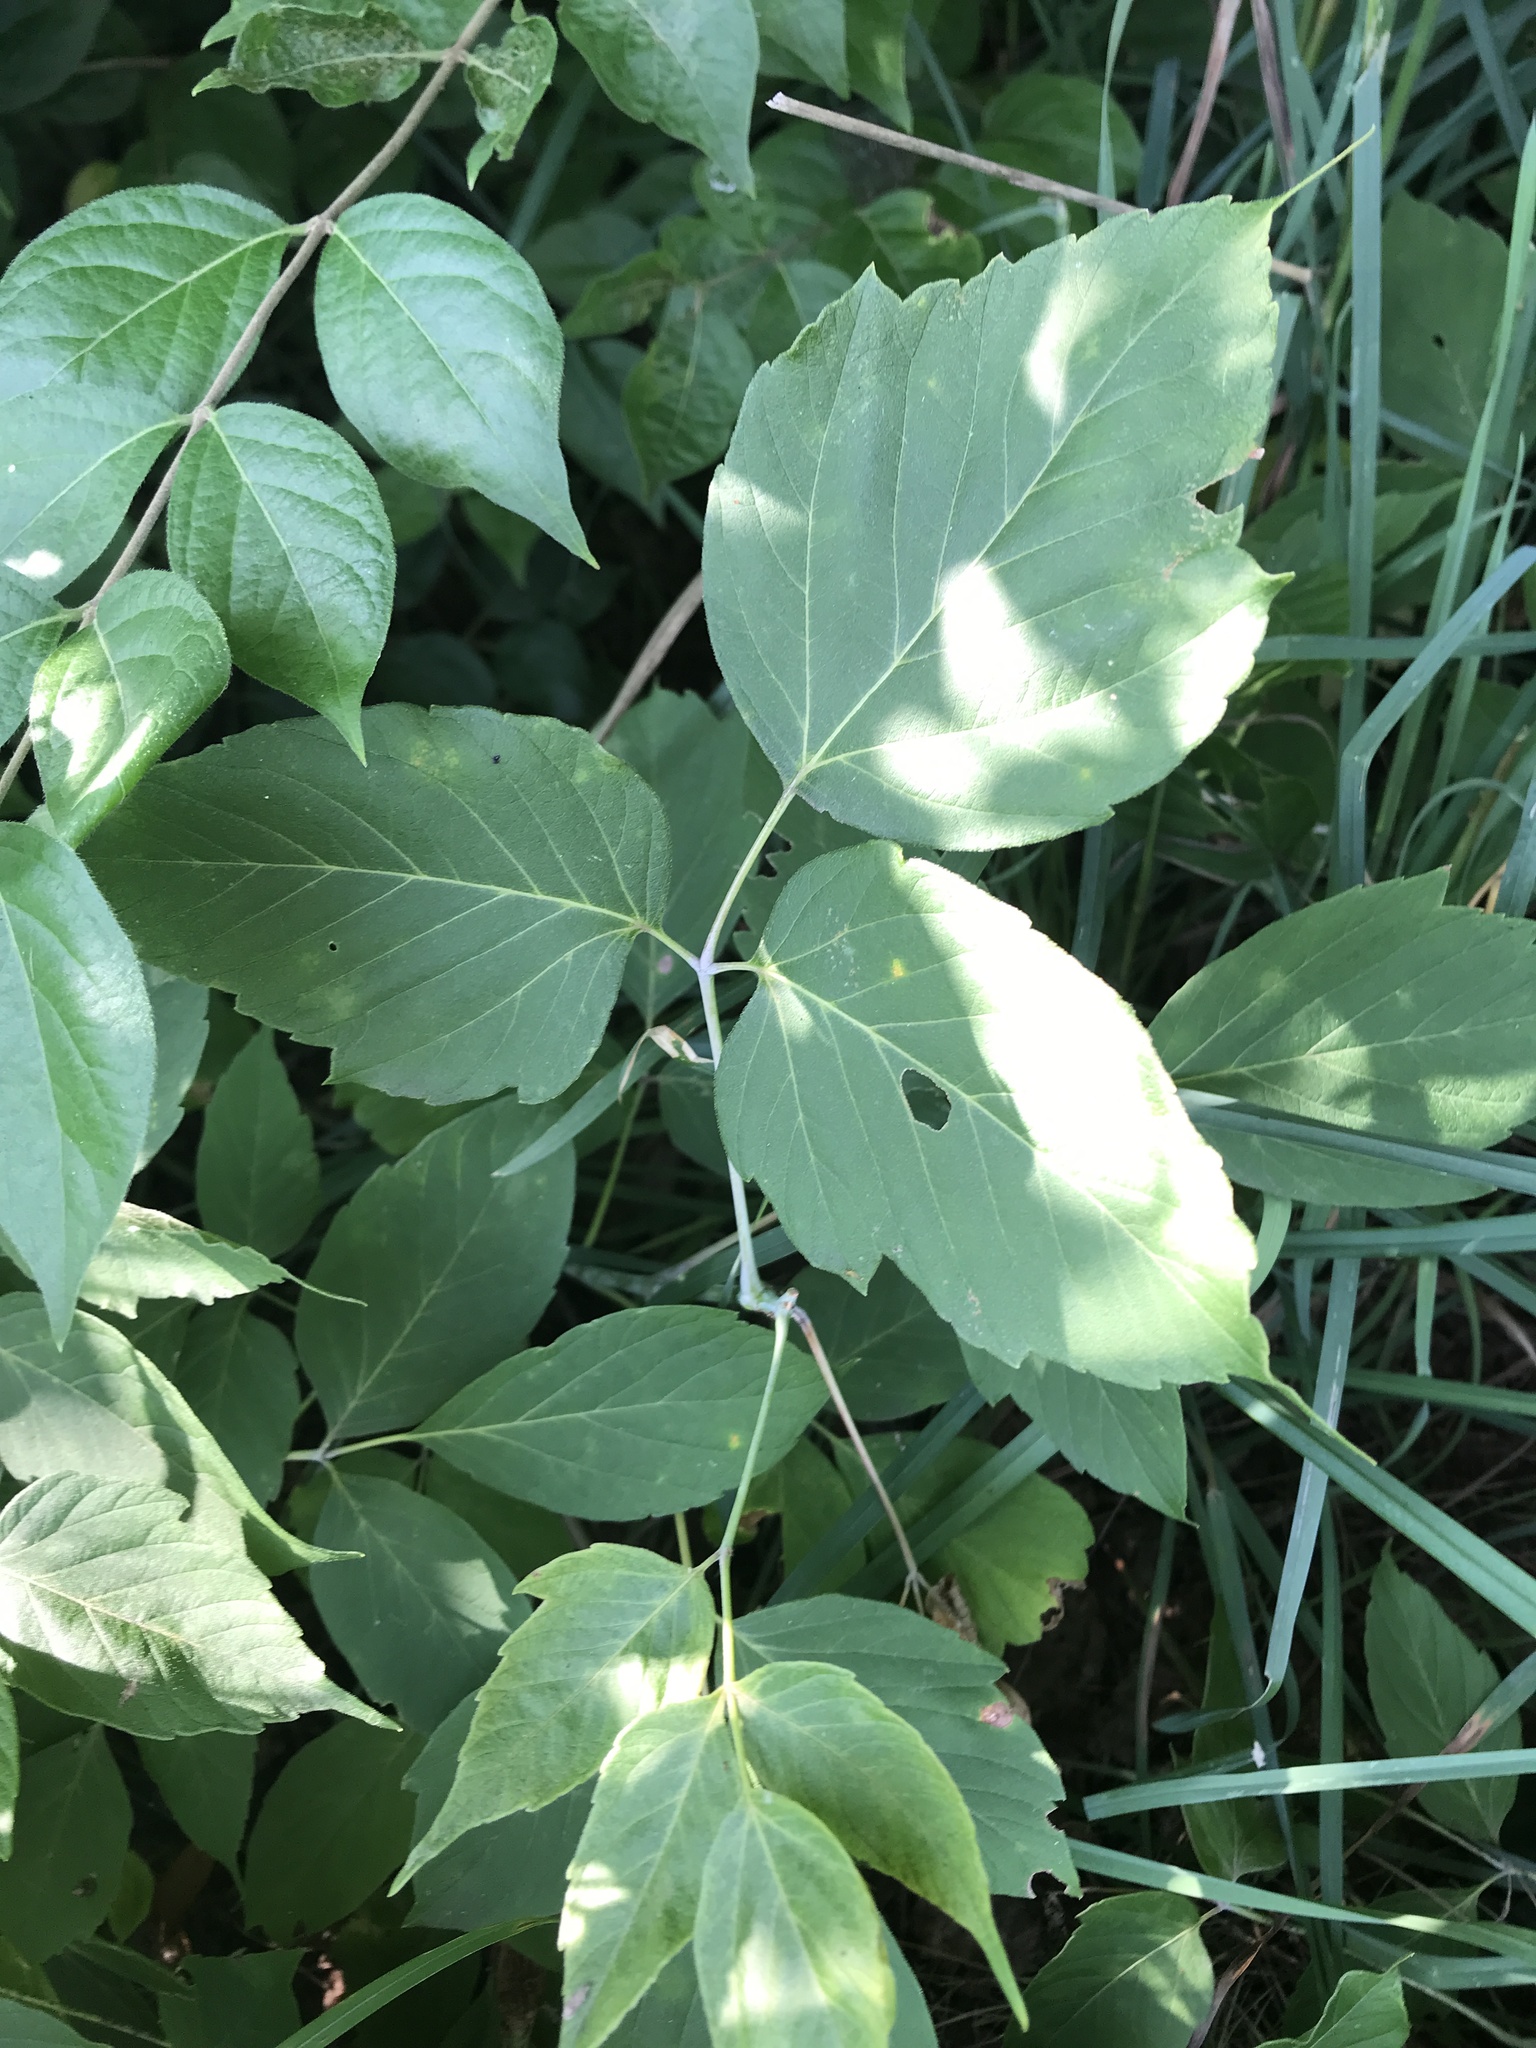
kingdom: Plantae
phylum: Tracheophyta
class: Magnoliopsida
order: Sapindales
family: Sapindaceae
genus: Acer
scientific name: Acer negundo
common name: Ashleaf maple
